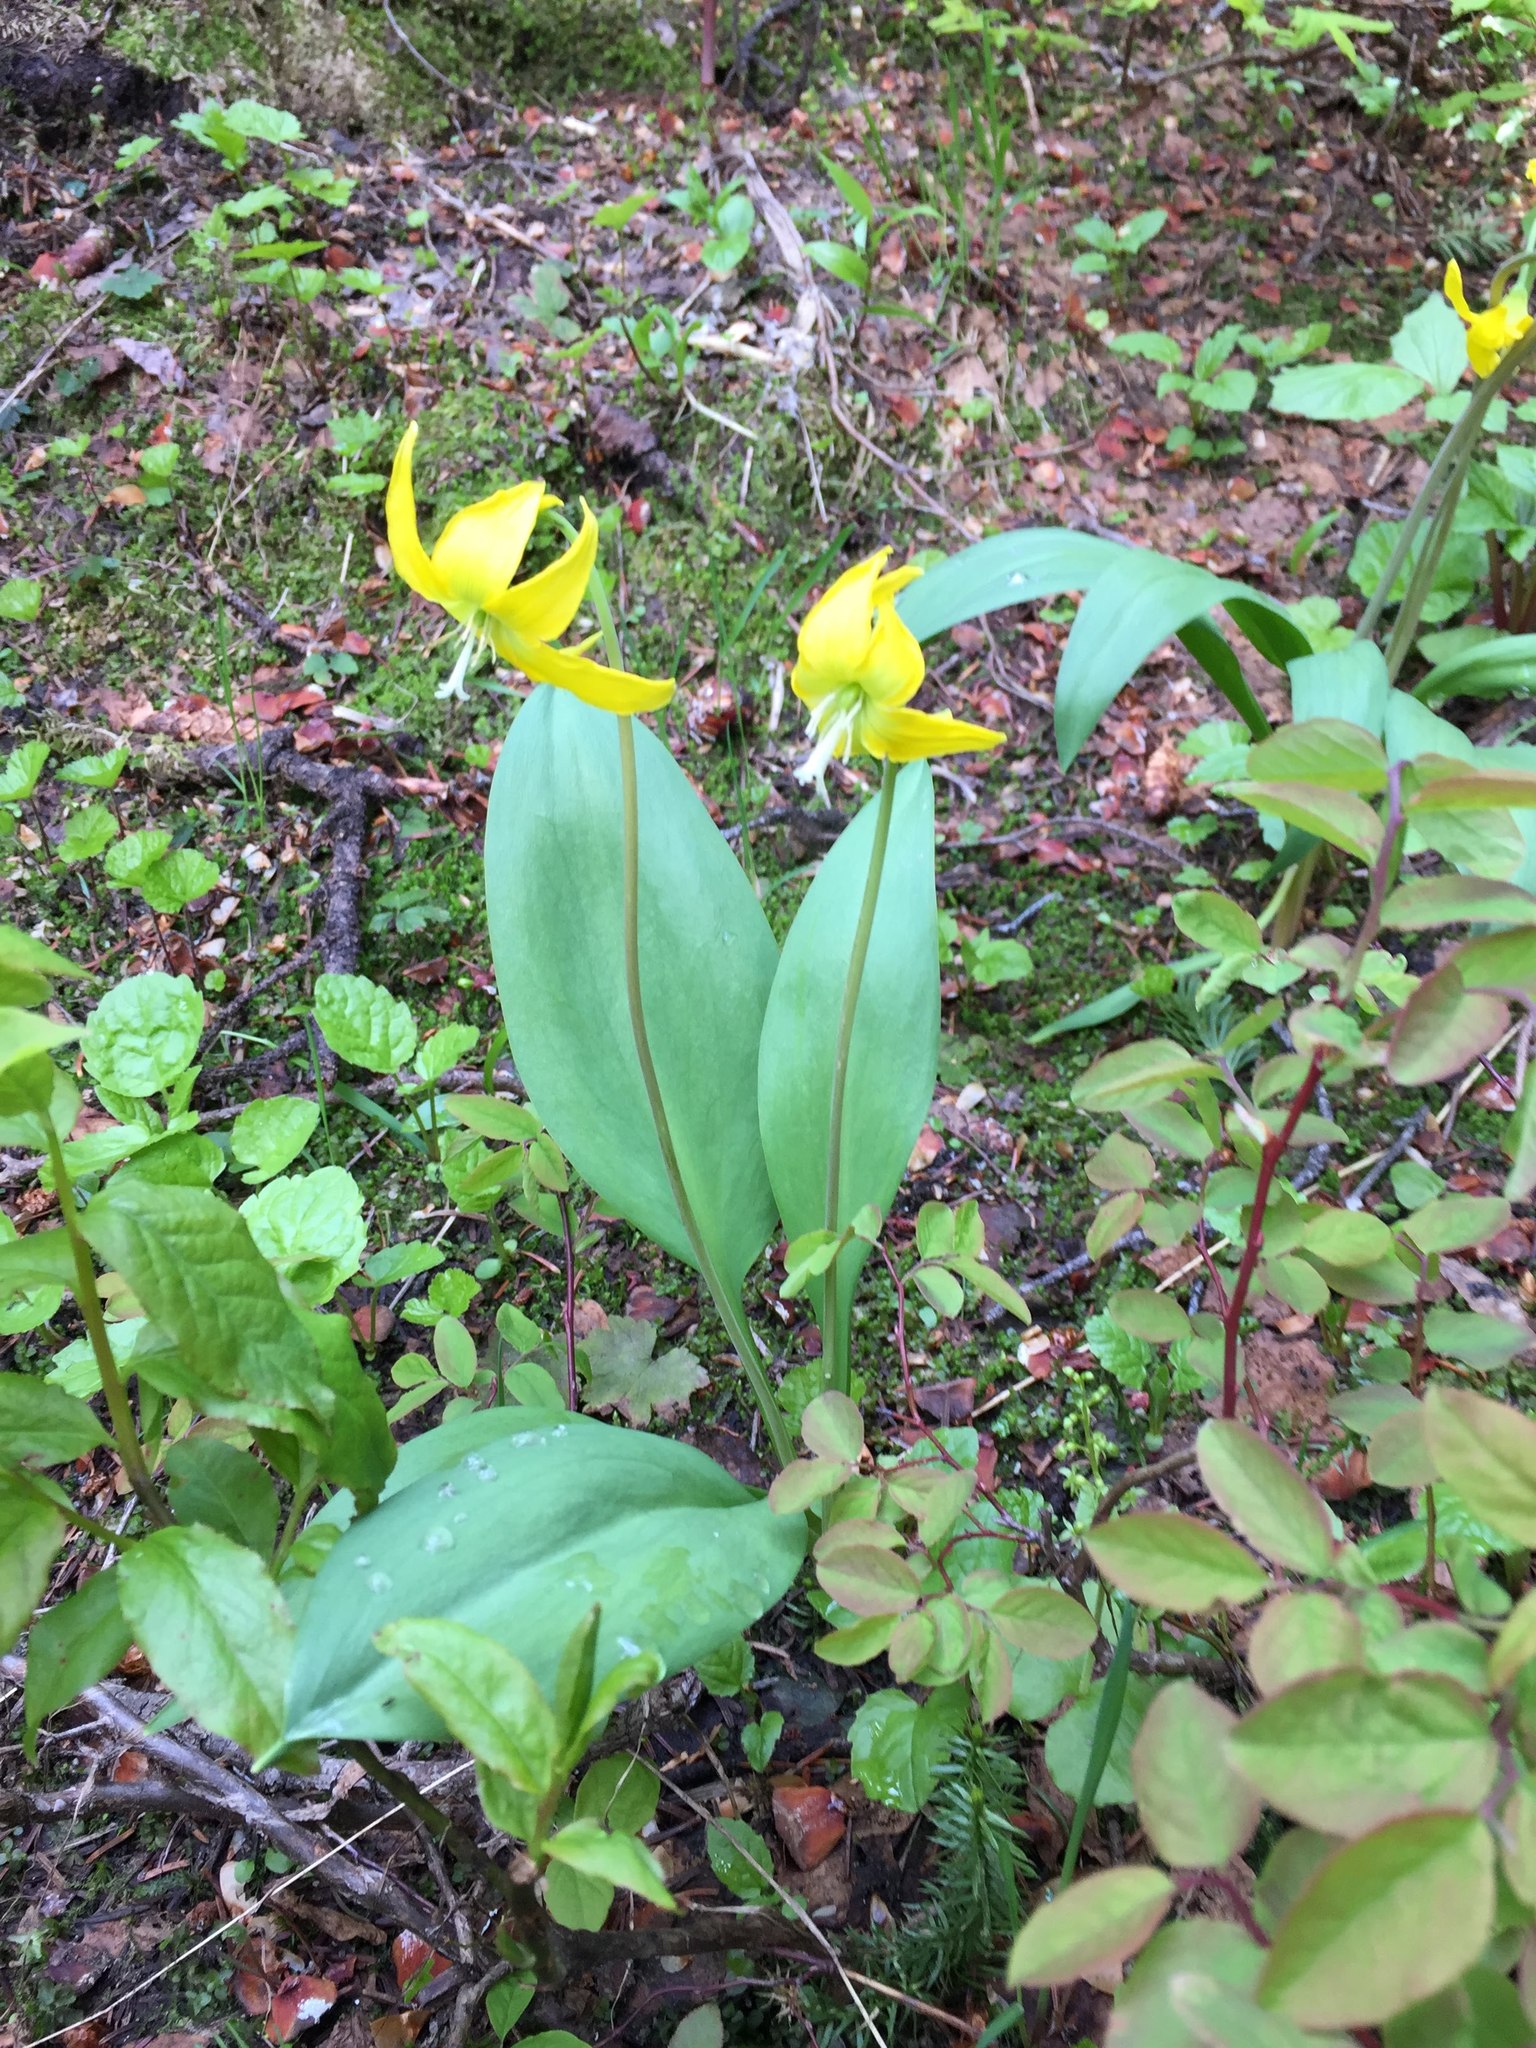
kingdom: Plantae
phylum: Tracheophyta
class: Liliopsida
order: Liliales
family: Liliaceae
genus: Erythronium
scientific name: Erythronium grandiflorum
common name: Avalanche-lily
